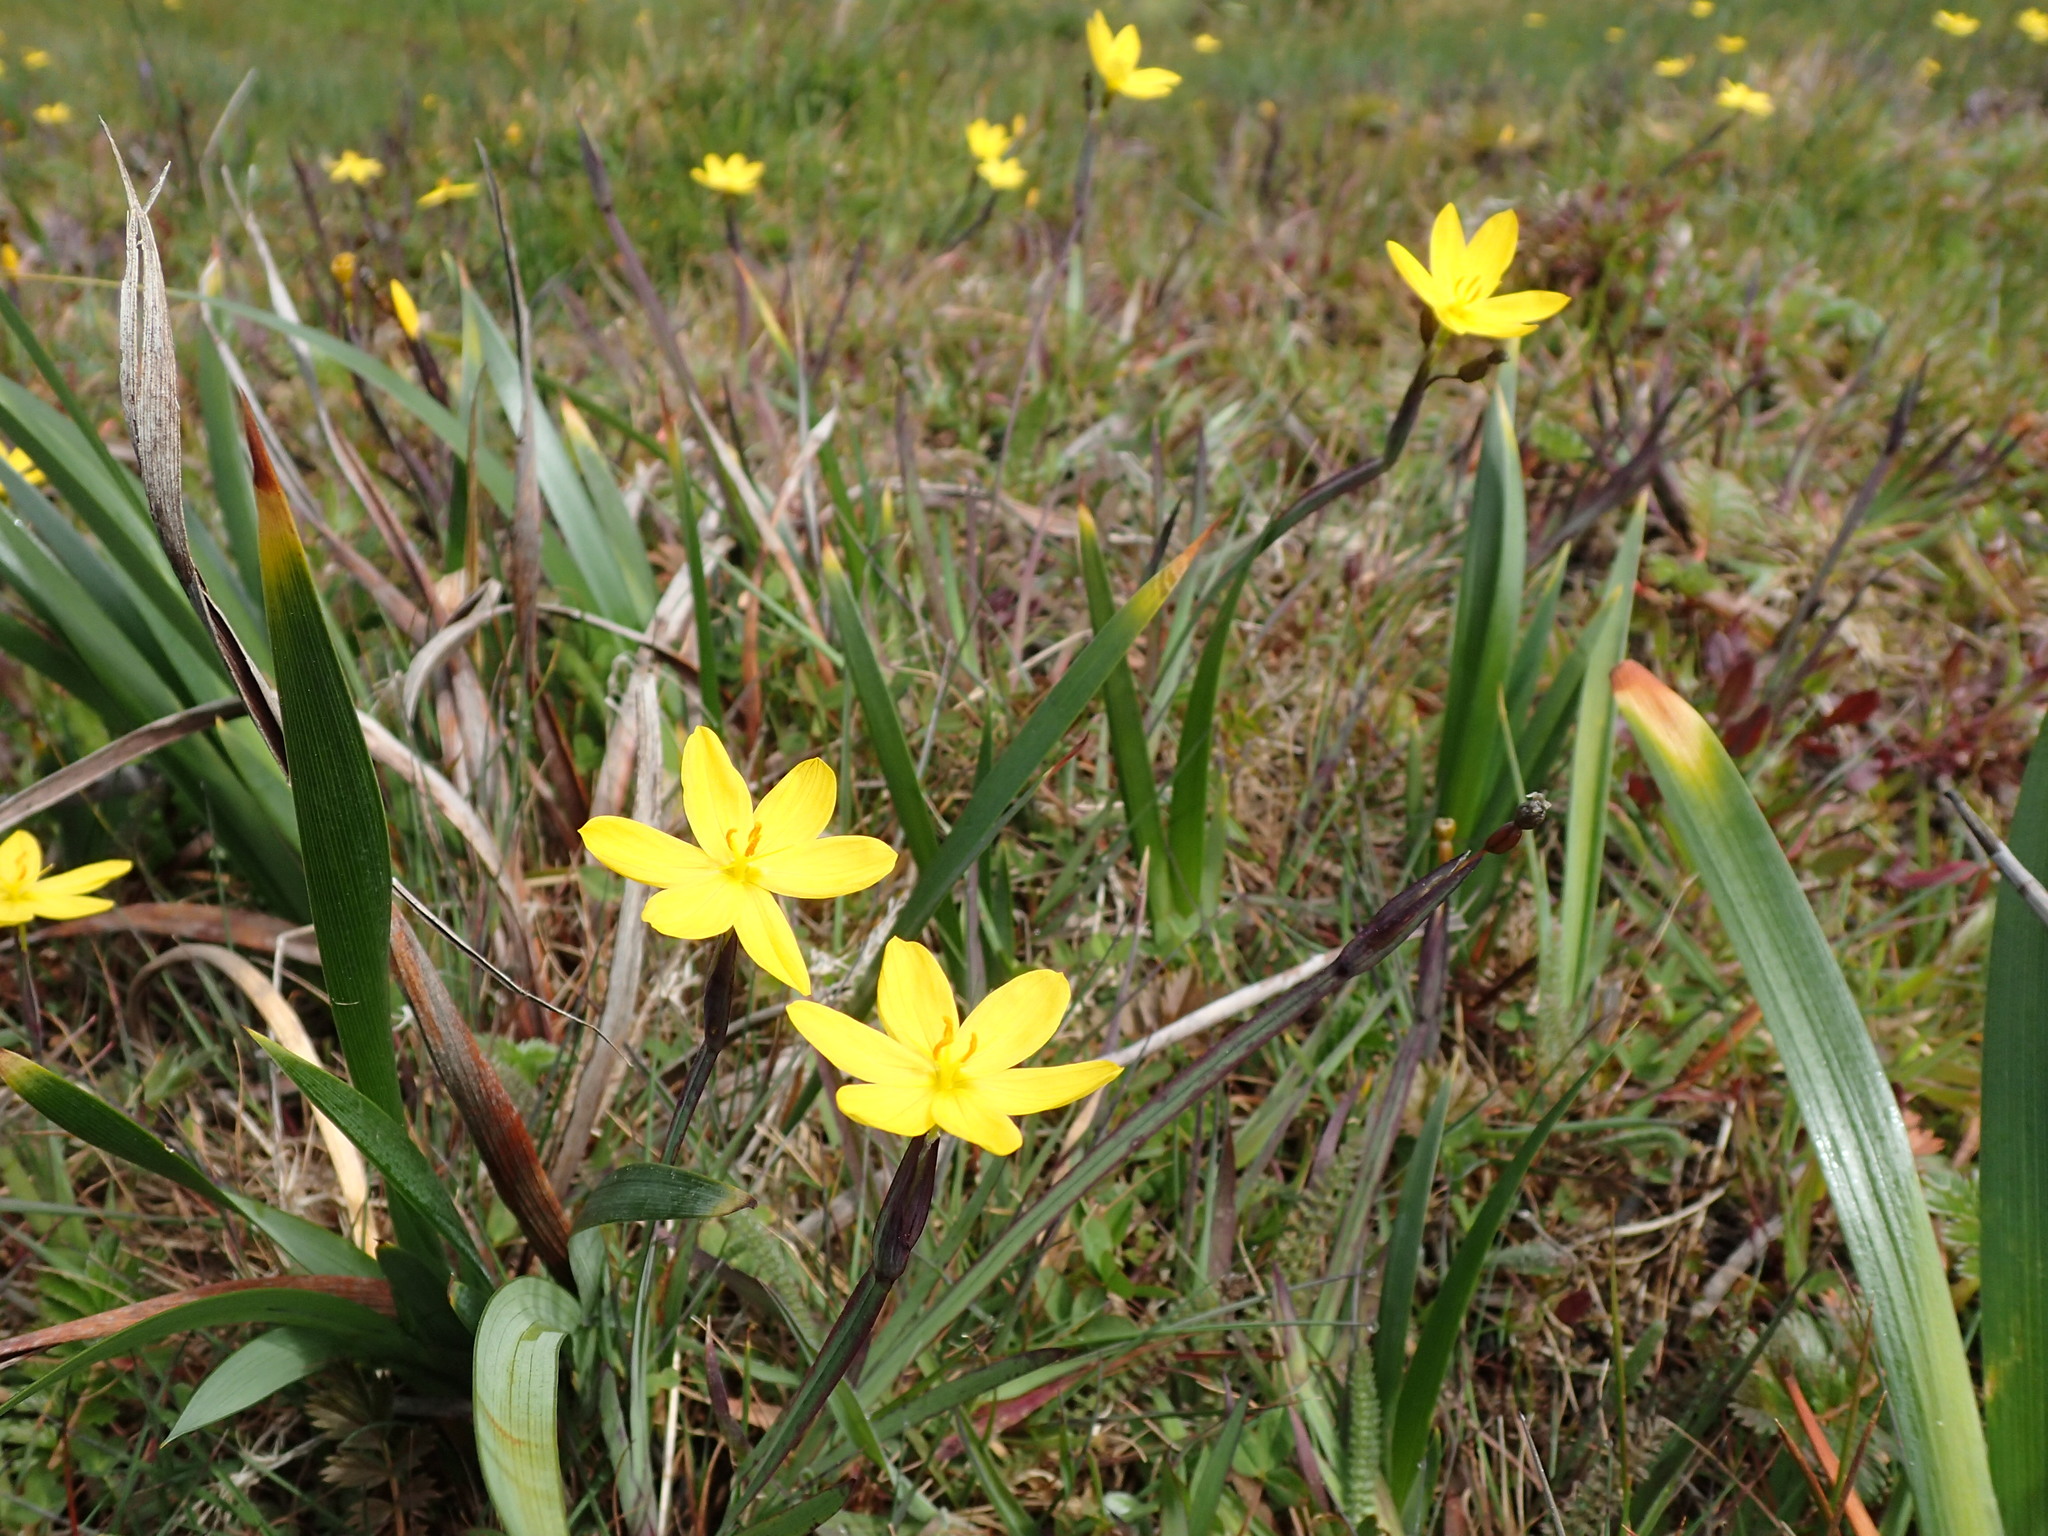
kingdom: Plantae
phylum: Tracheophyta
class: Liliopsida
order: Asparagales
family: Iridaceae
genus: Sisyrinchium
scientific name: Sisyrinchium californicum
